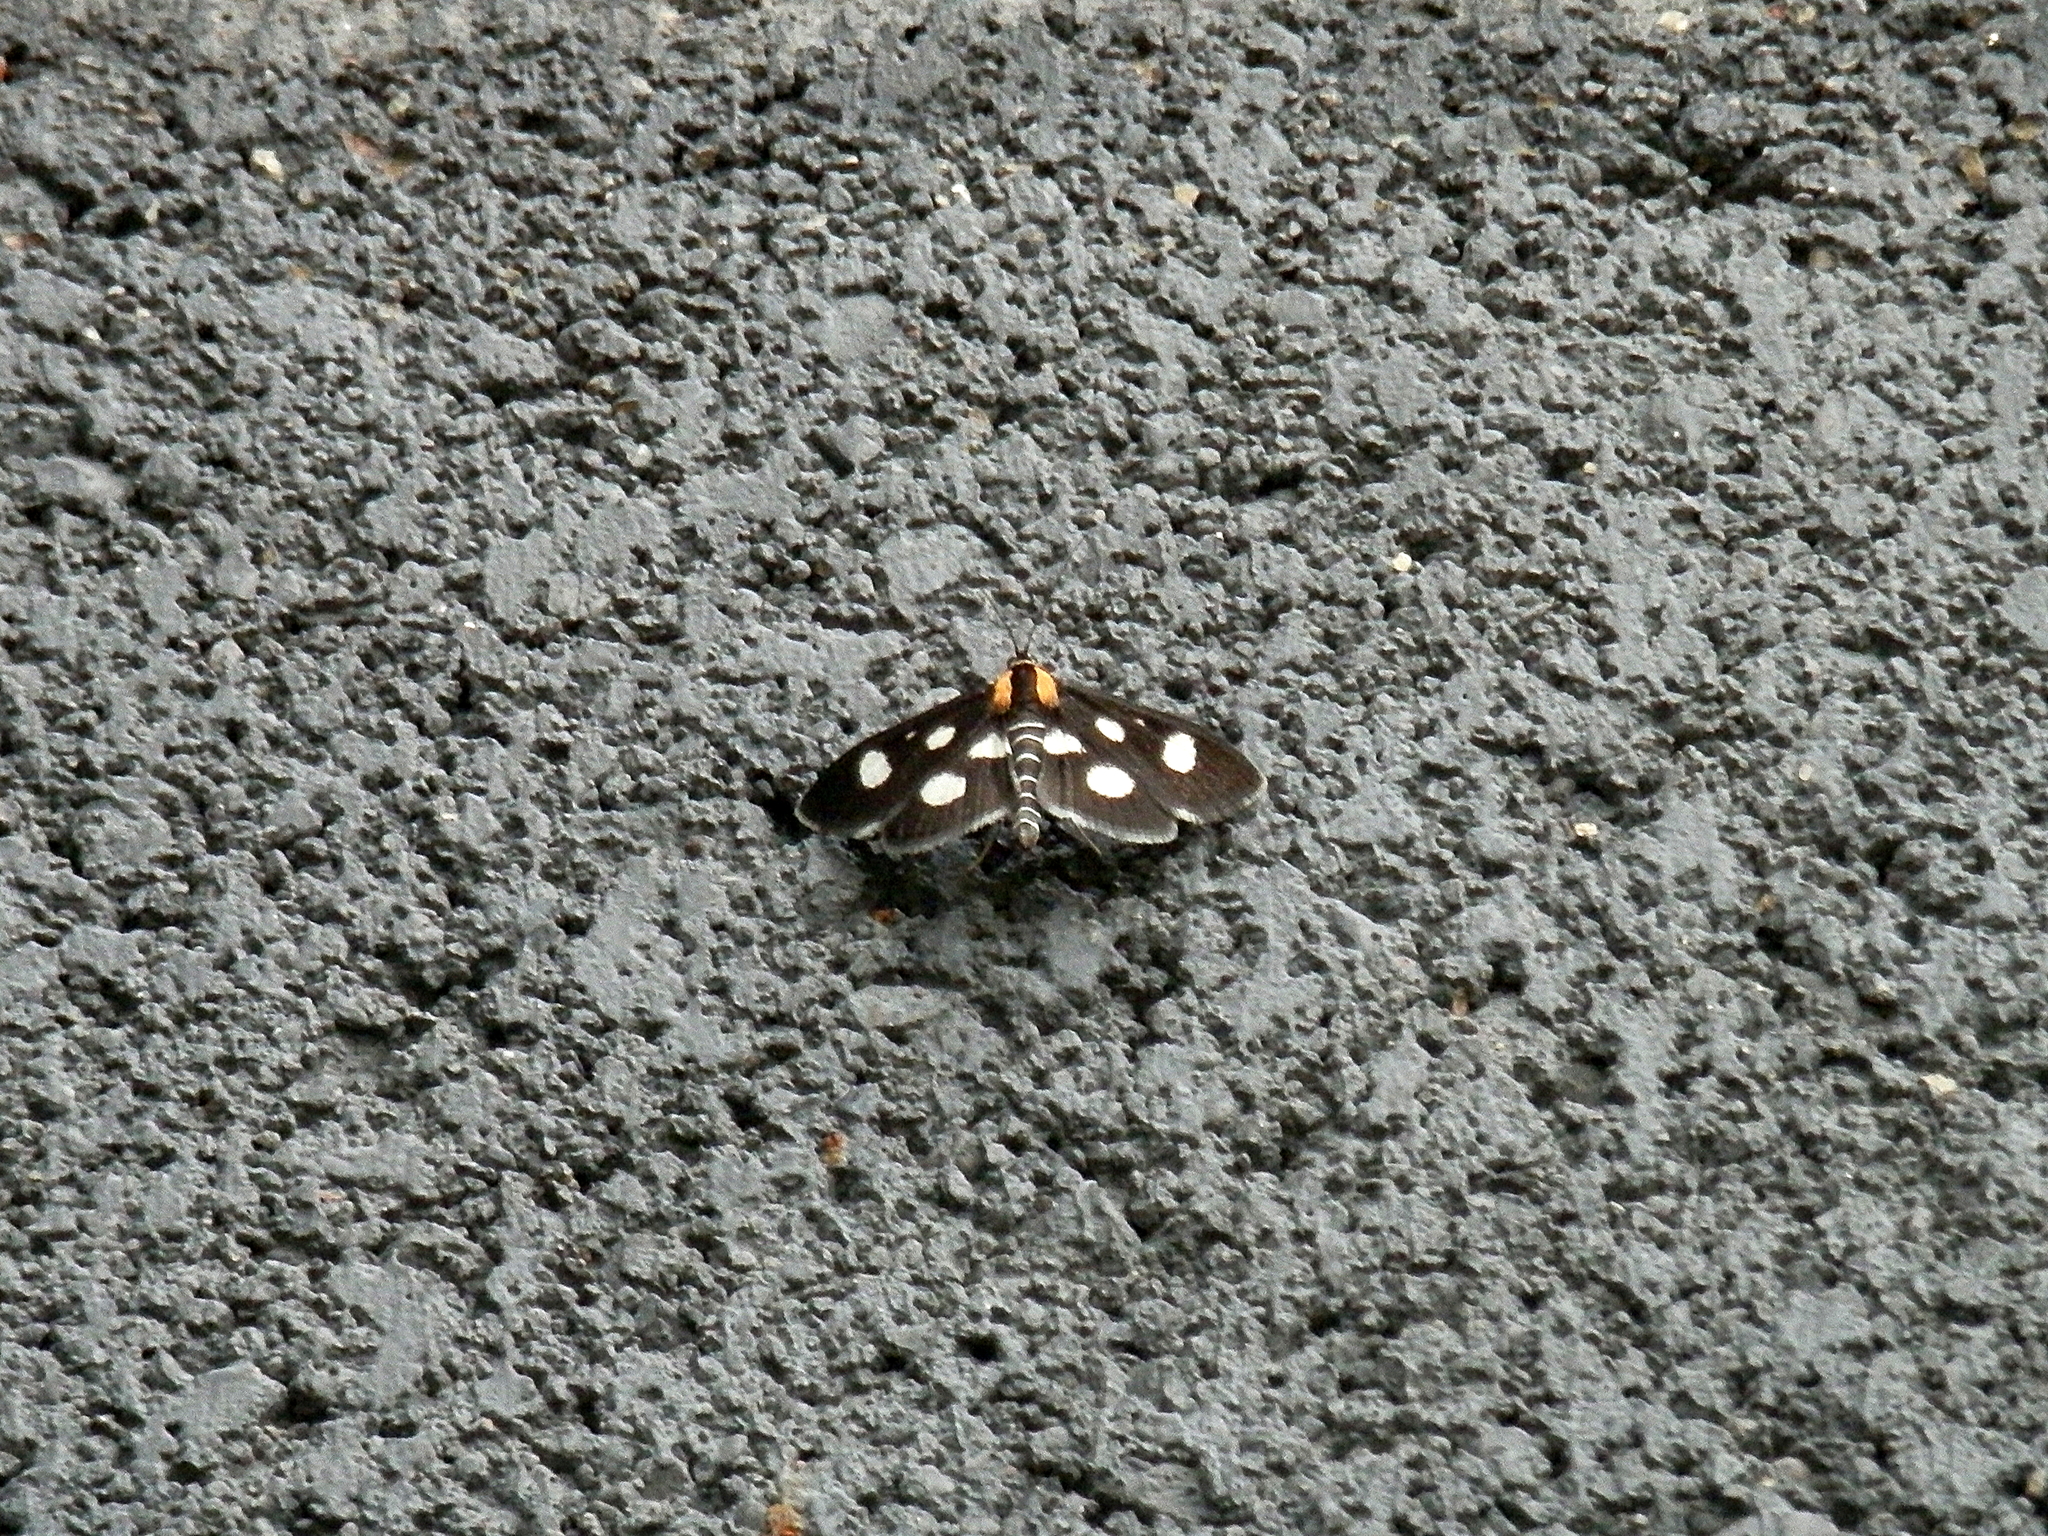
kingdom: Animalia
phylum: Arthropoda
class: Insecta
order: Lepidoptera
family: Crambidae
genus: Anania
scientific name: Anania funebris
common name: White-spotted sable moth
